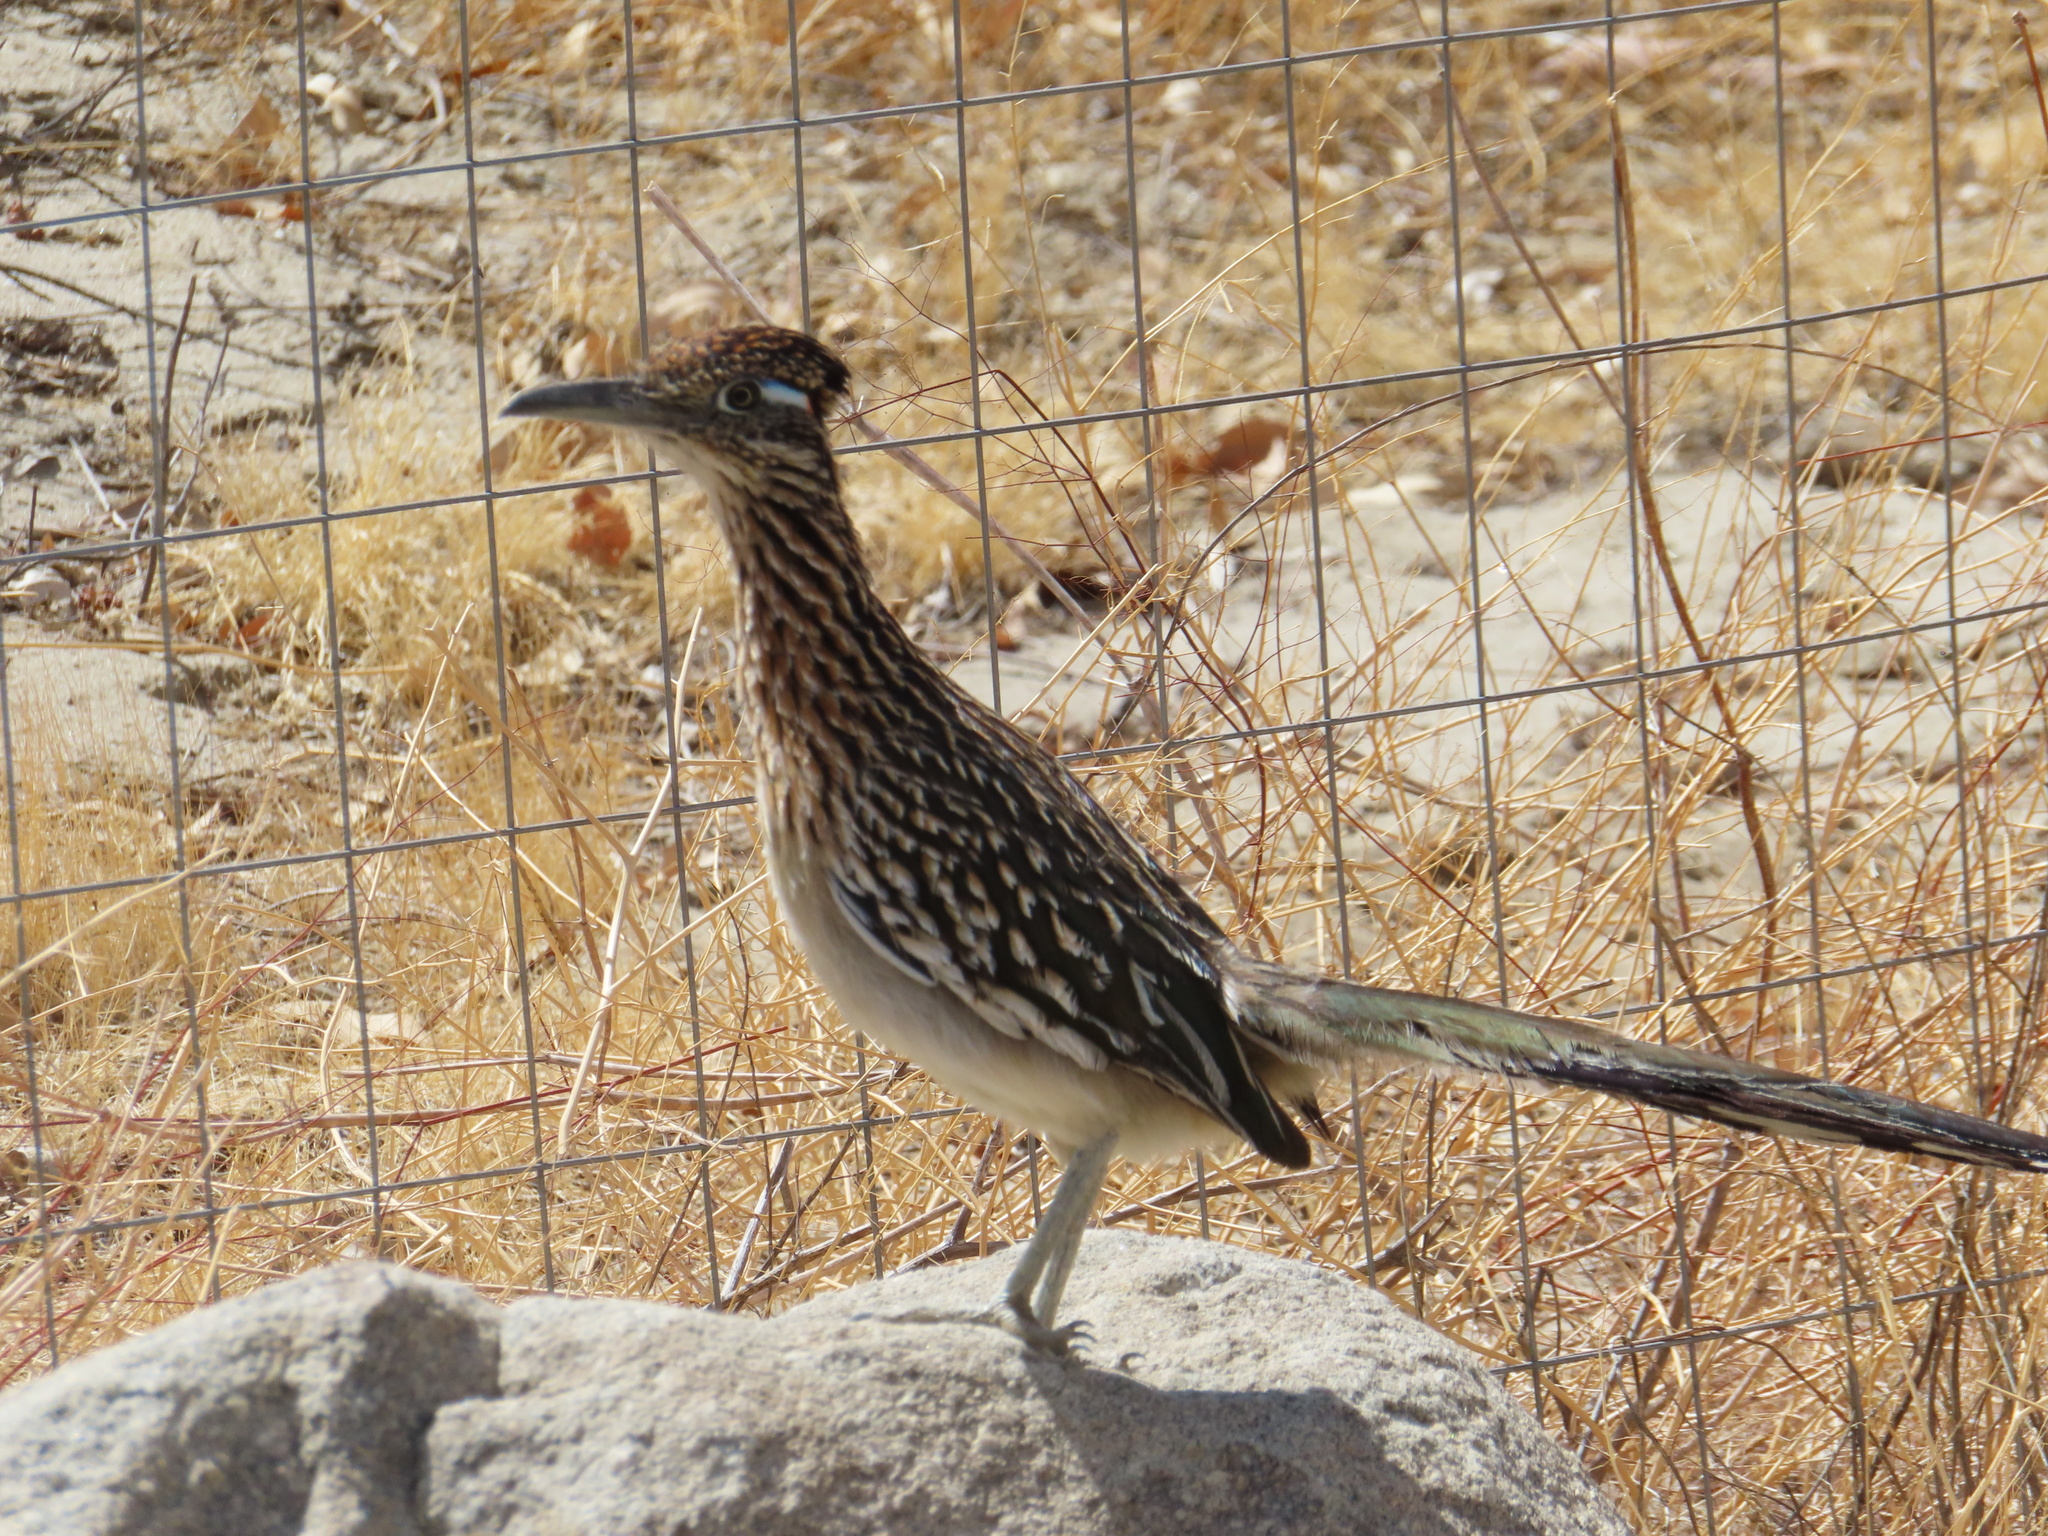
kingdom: Animalia
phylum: Chordata
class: Aves
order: Cuculiformes
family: Cuculidae
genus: Geococcyx
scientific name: Geococcyx californianus
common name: Greater roadrunner
